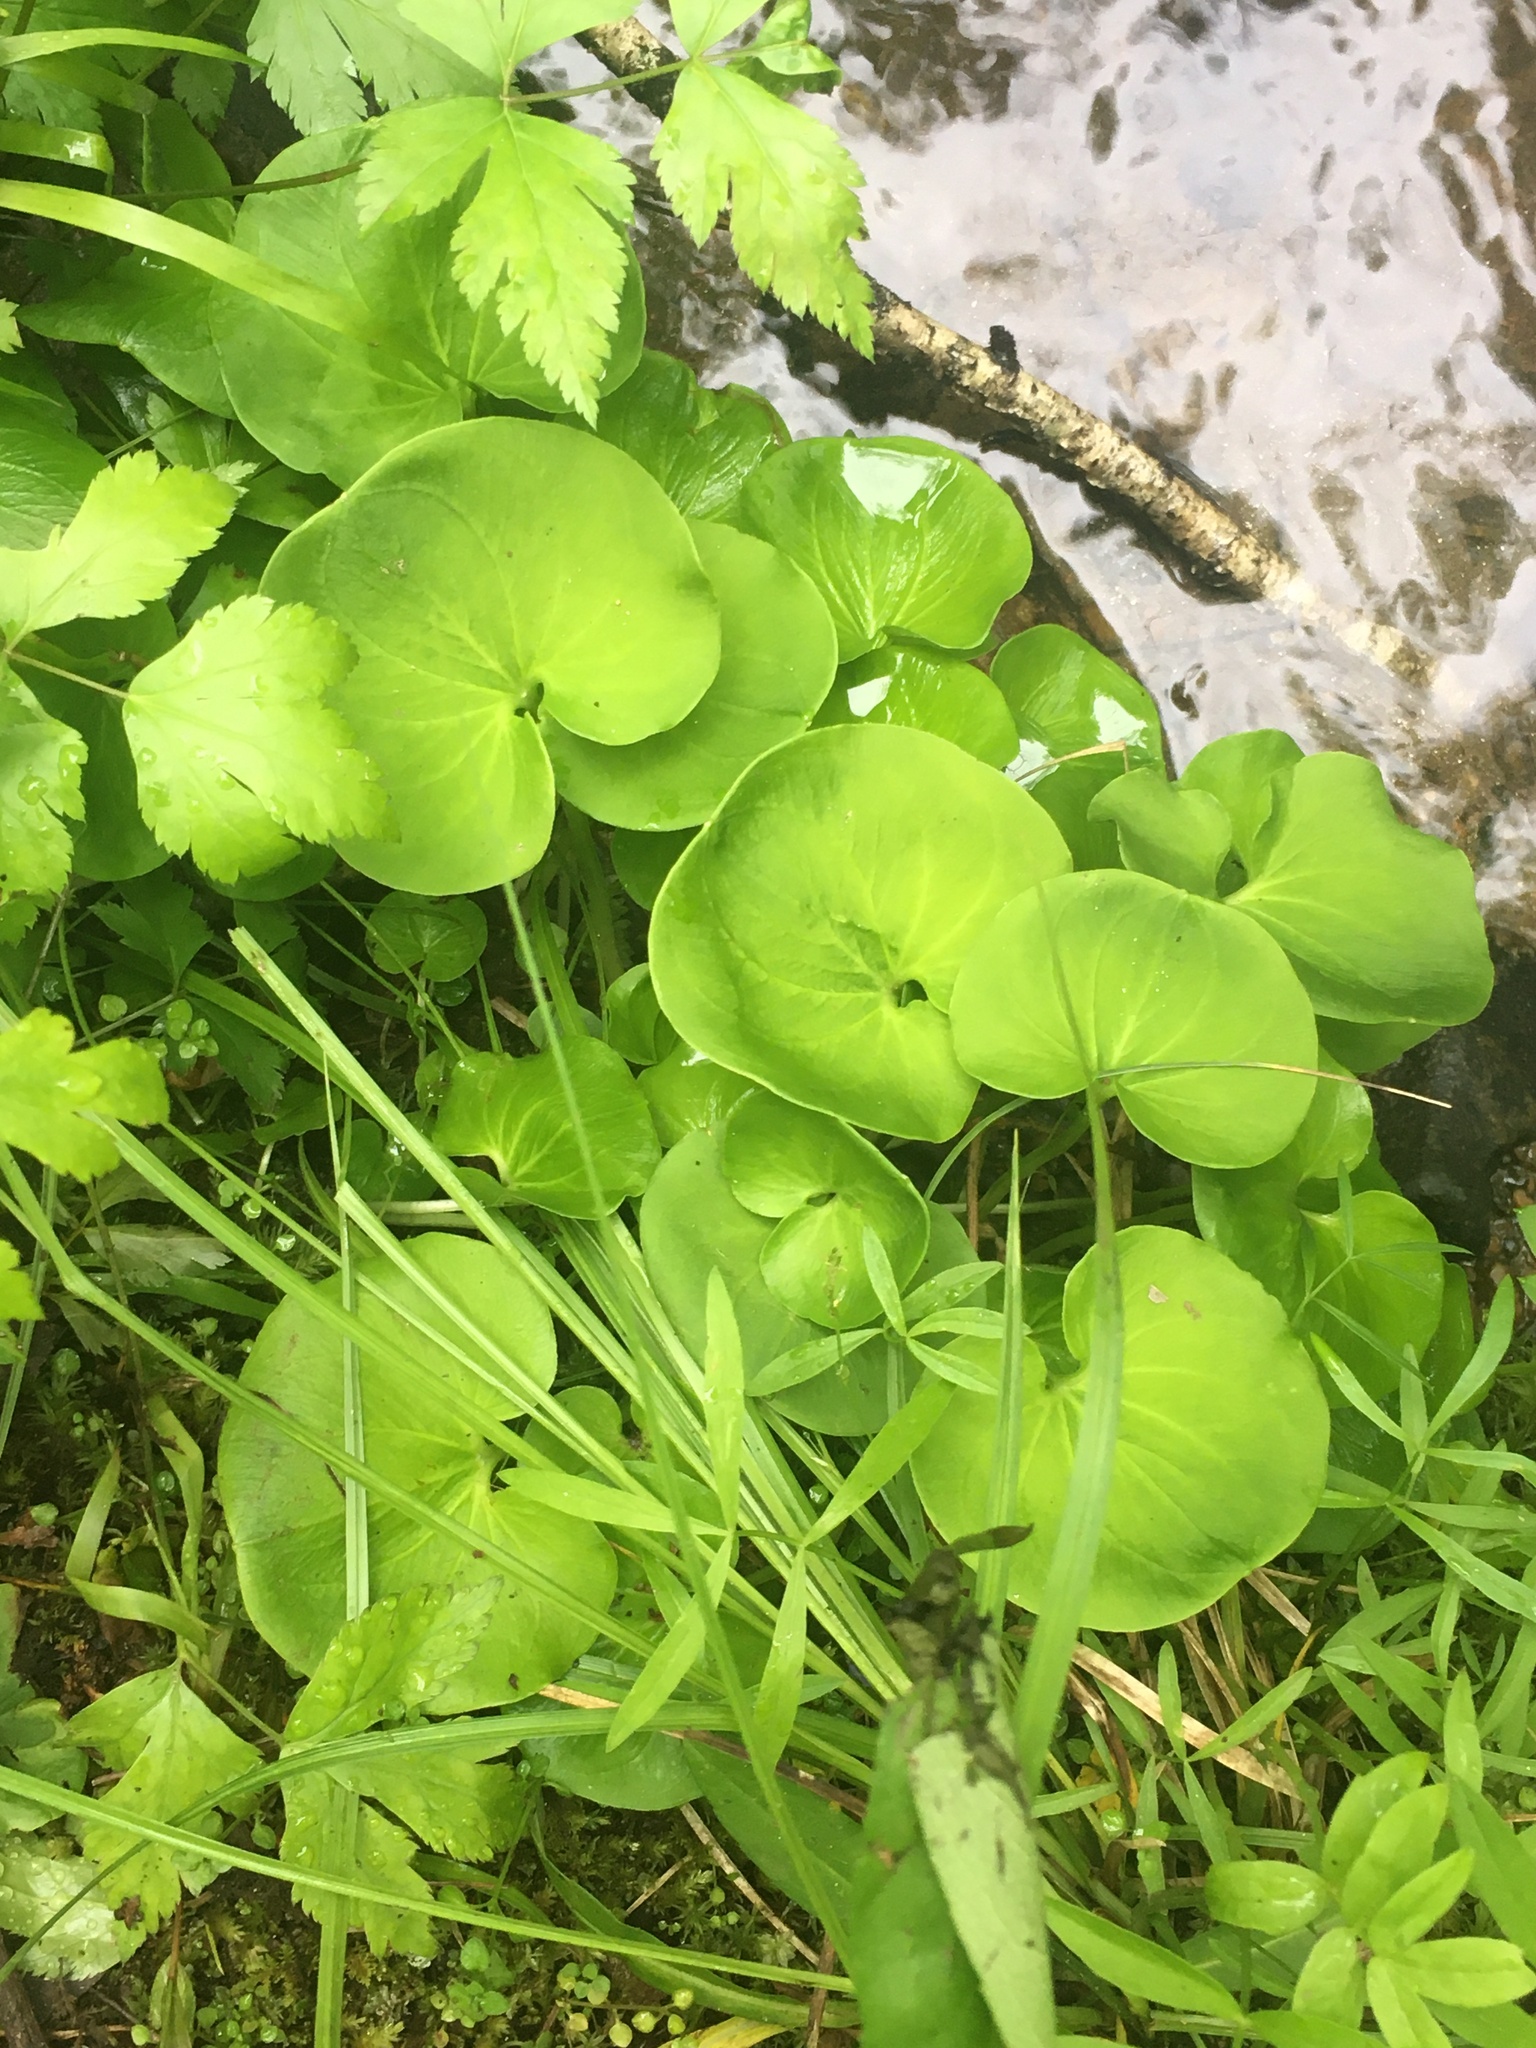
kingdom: Plantae
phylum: Tracheophyta
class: Magnoliopsida
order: Celastrales
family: Parnassiaceae
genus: Parnassia
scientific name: Parnassia asarifolia
